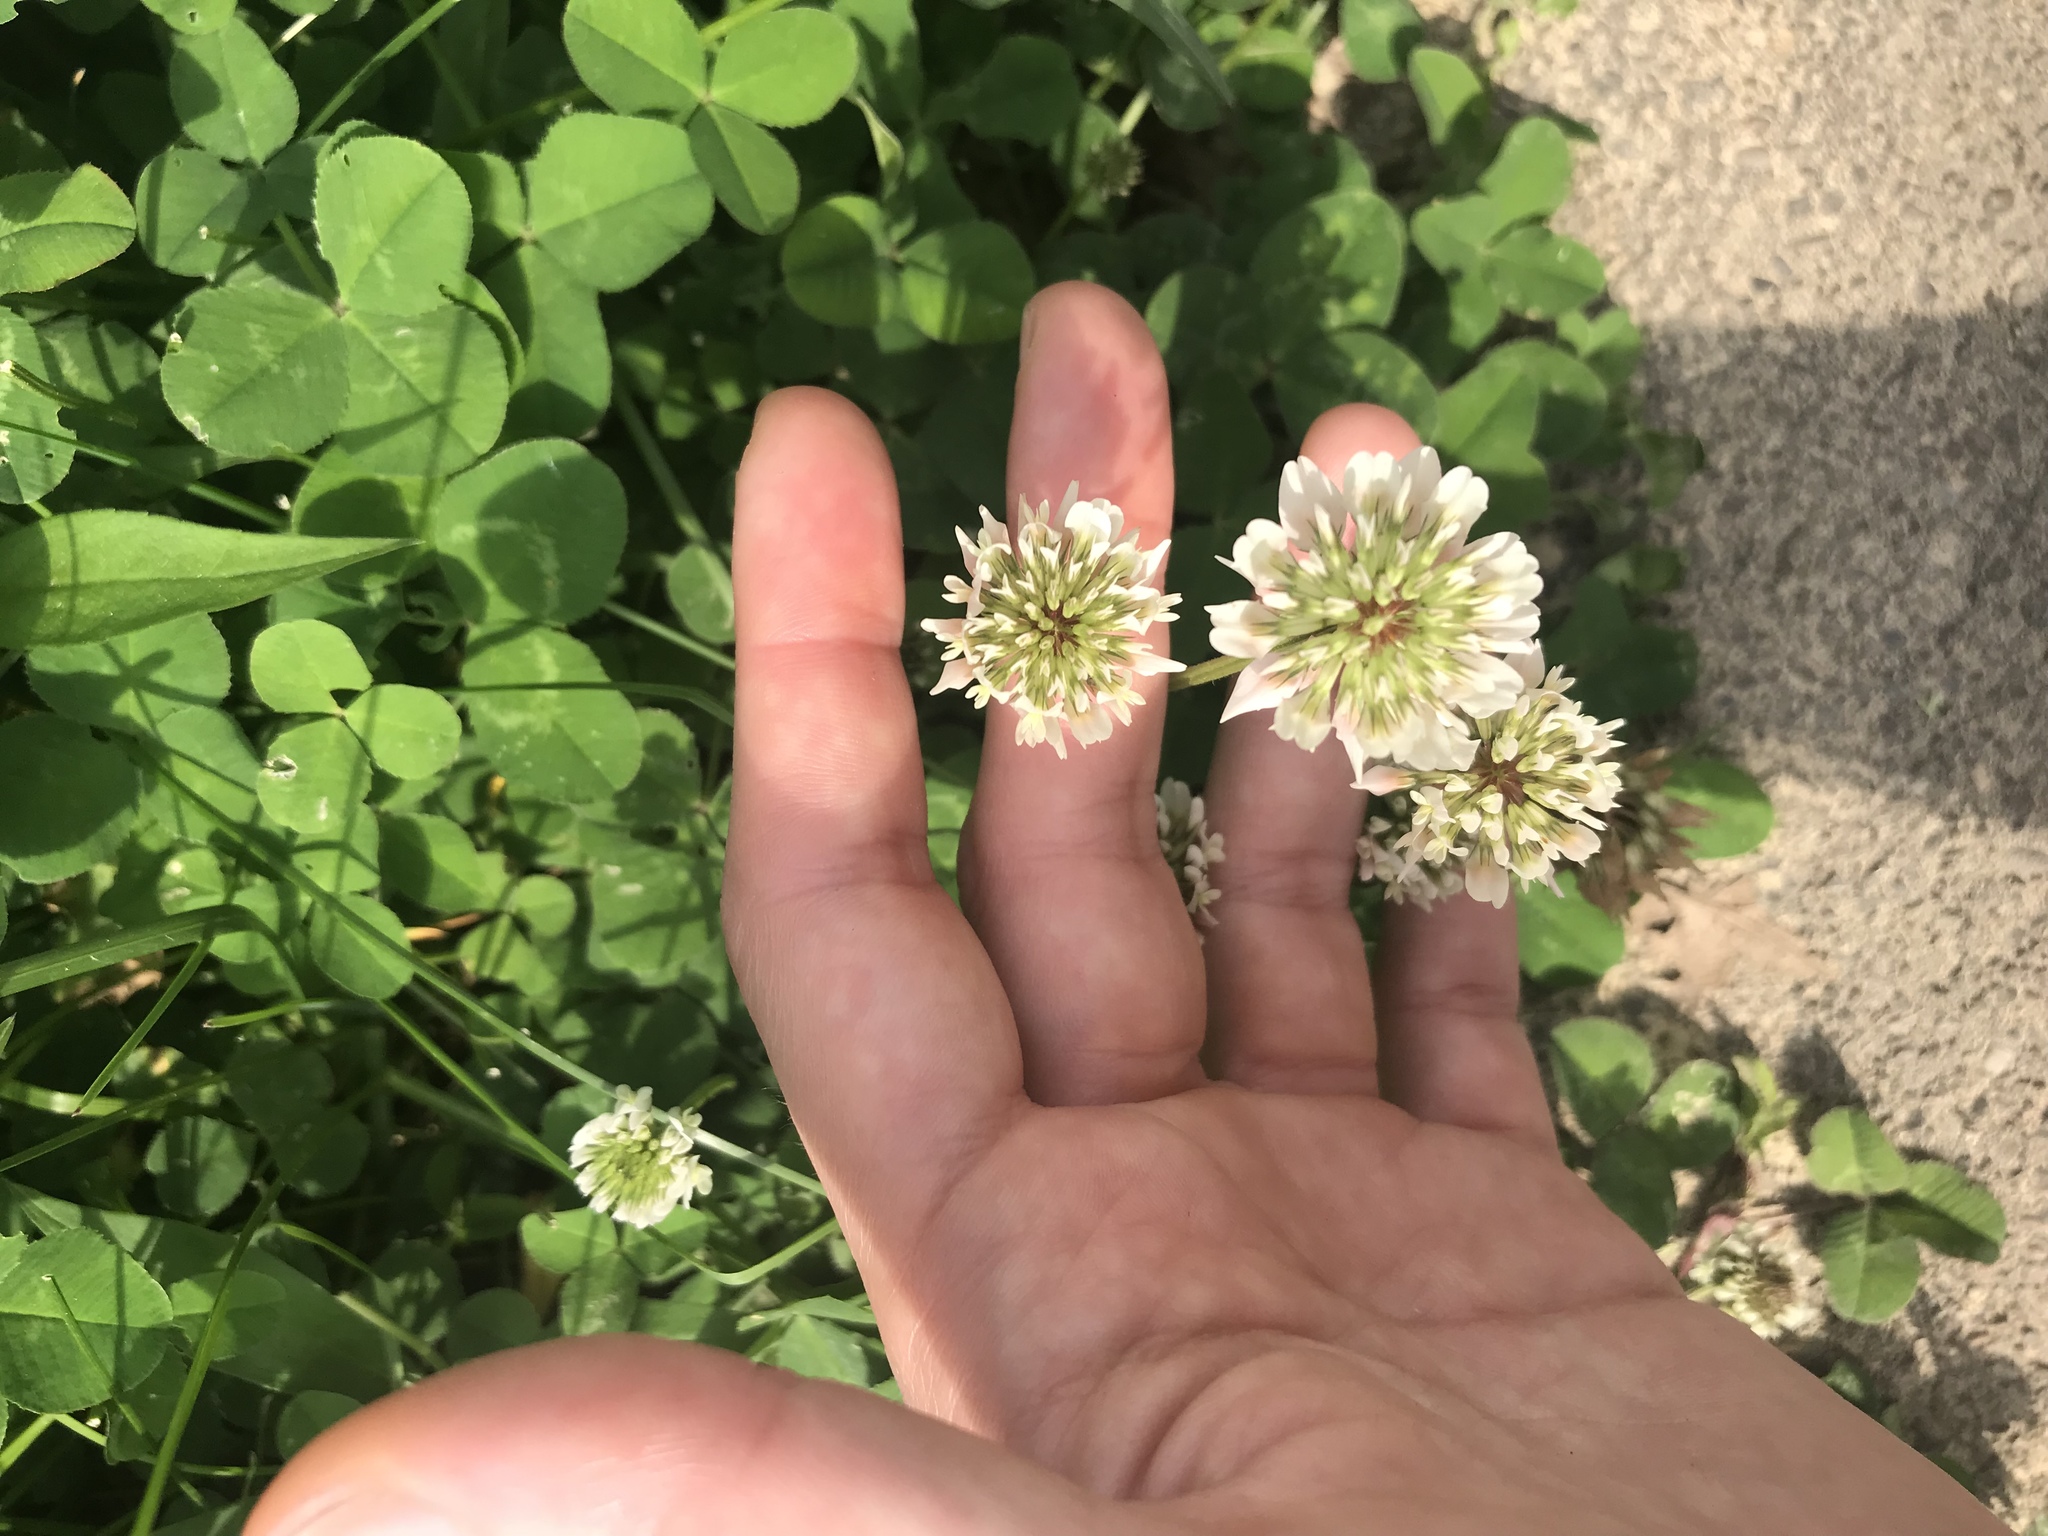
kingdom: Plantae
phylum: Tracheophyta
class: Magnoliopsida
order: Fabales
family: Fabaceae
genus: Trifolium
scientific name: Trifolium repens
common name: White clover
